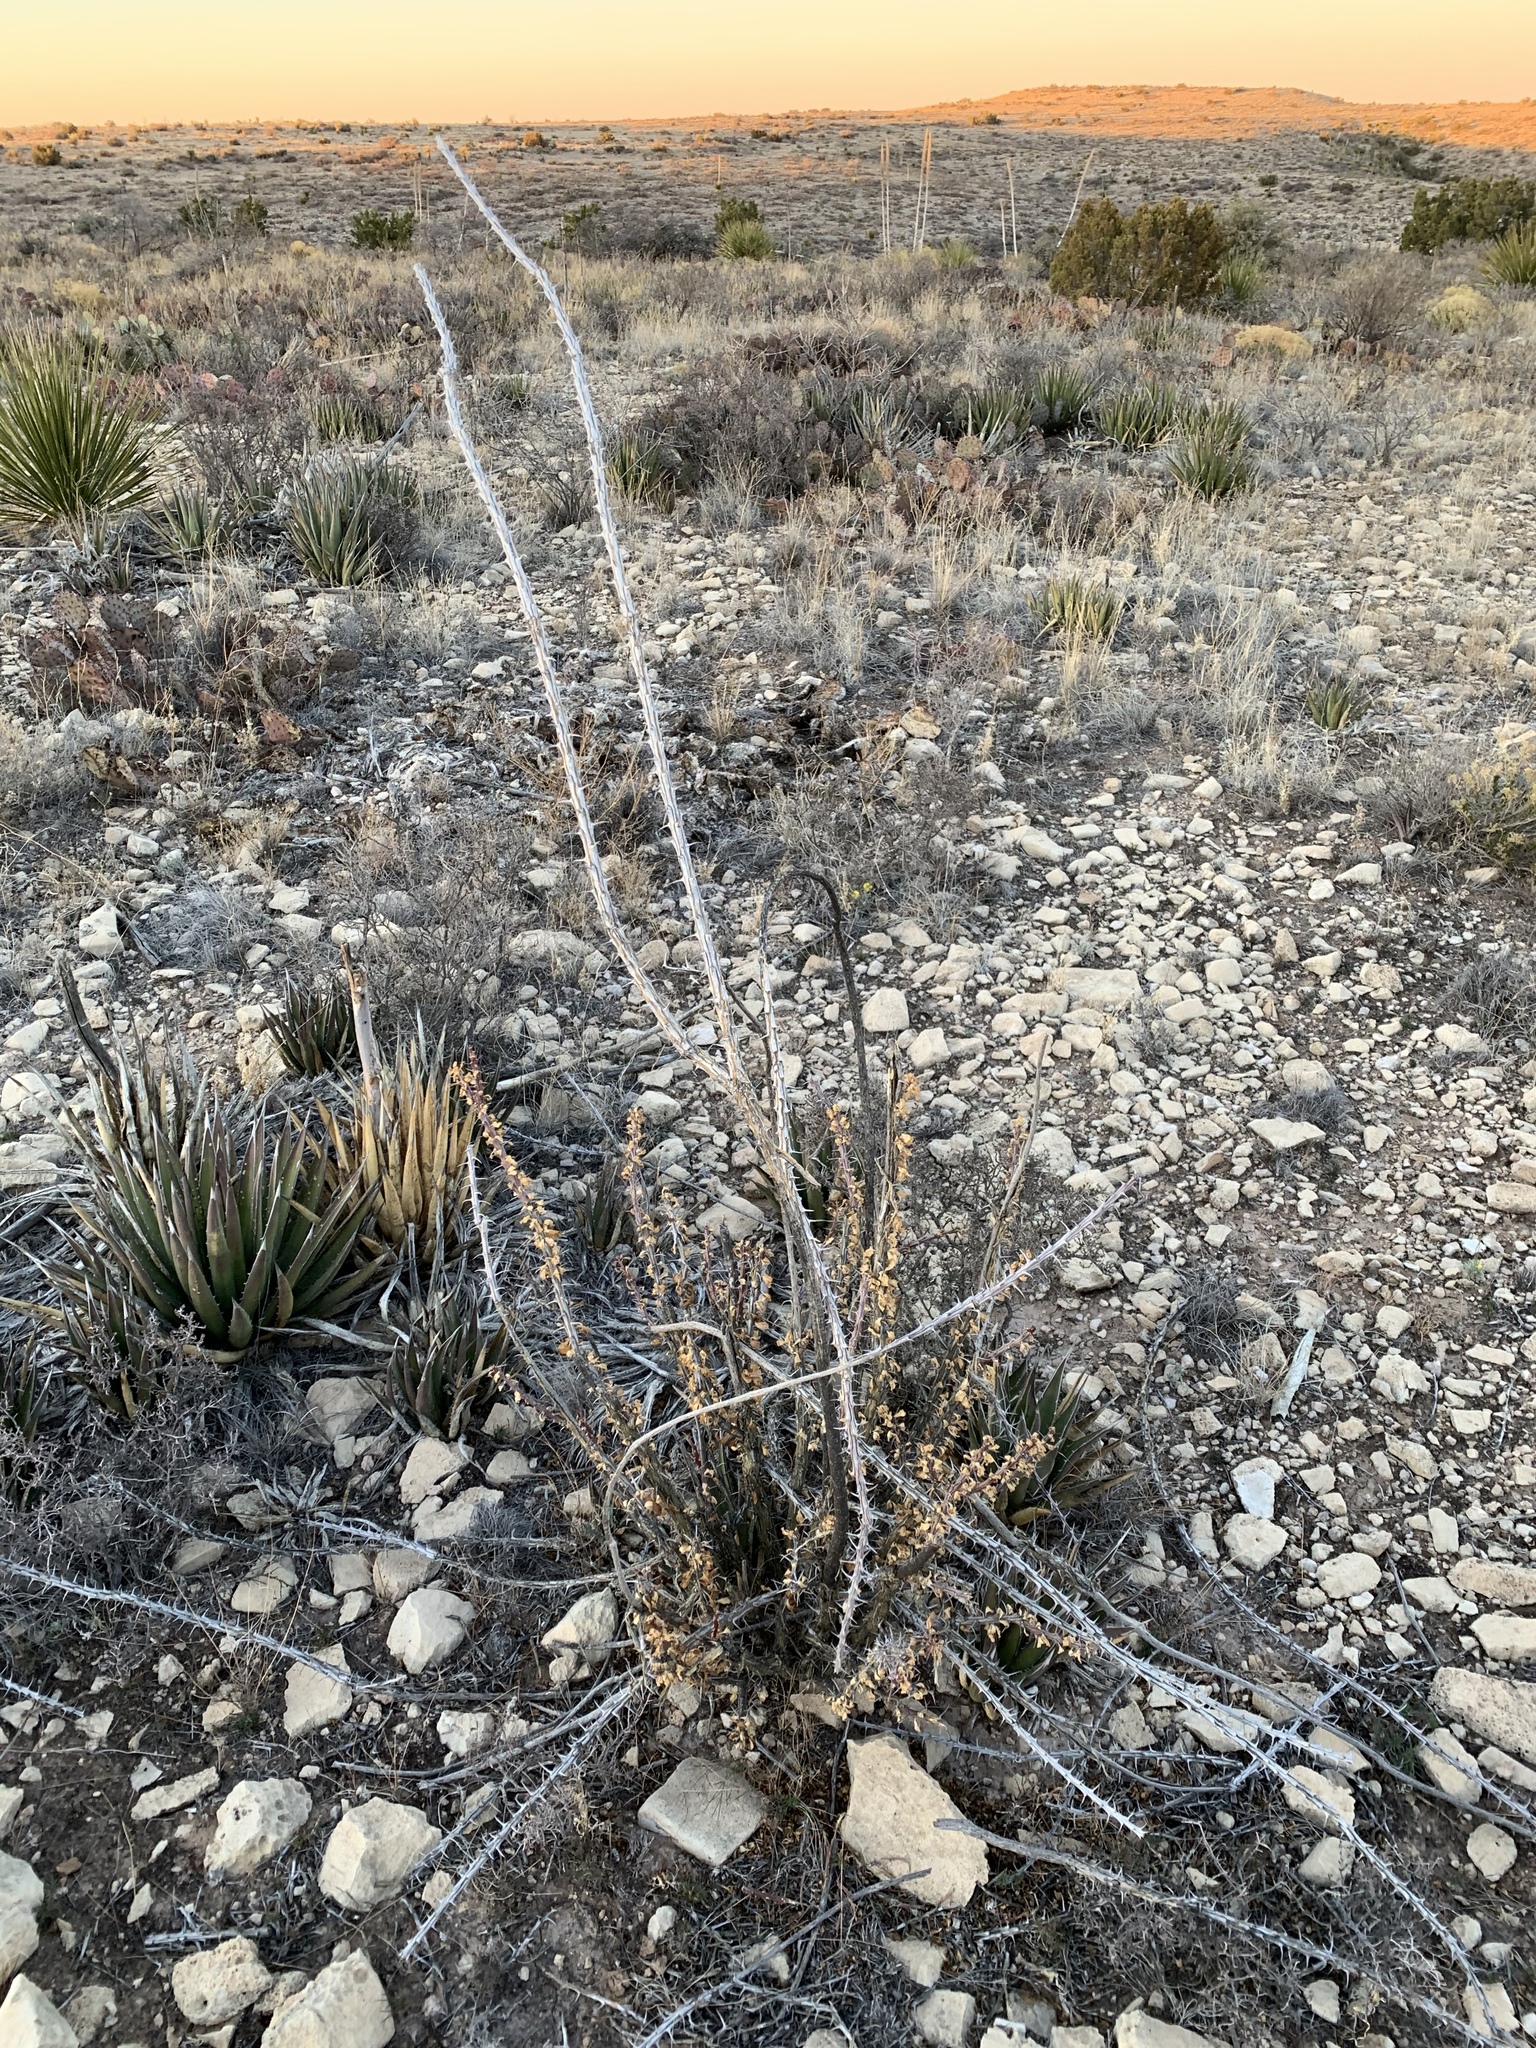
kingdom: Plantae
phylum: Tracheophyta
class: Magnoliopsida
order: Ericales
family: Fouquieriaceae
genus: Fouquieria
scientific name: Fouquieria splendens
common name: Vine-cactus
